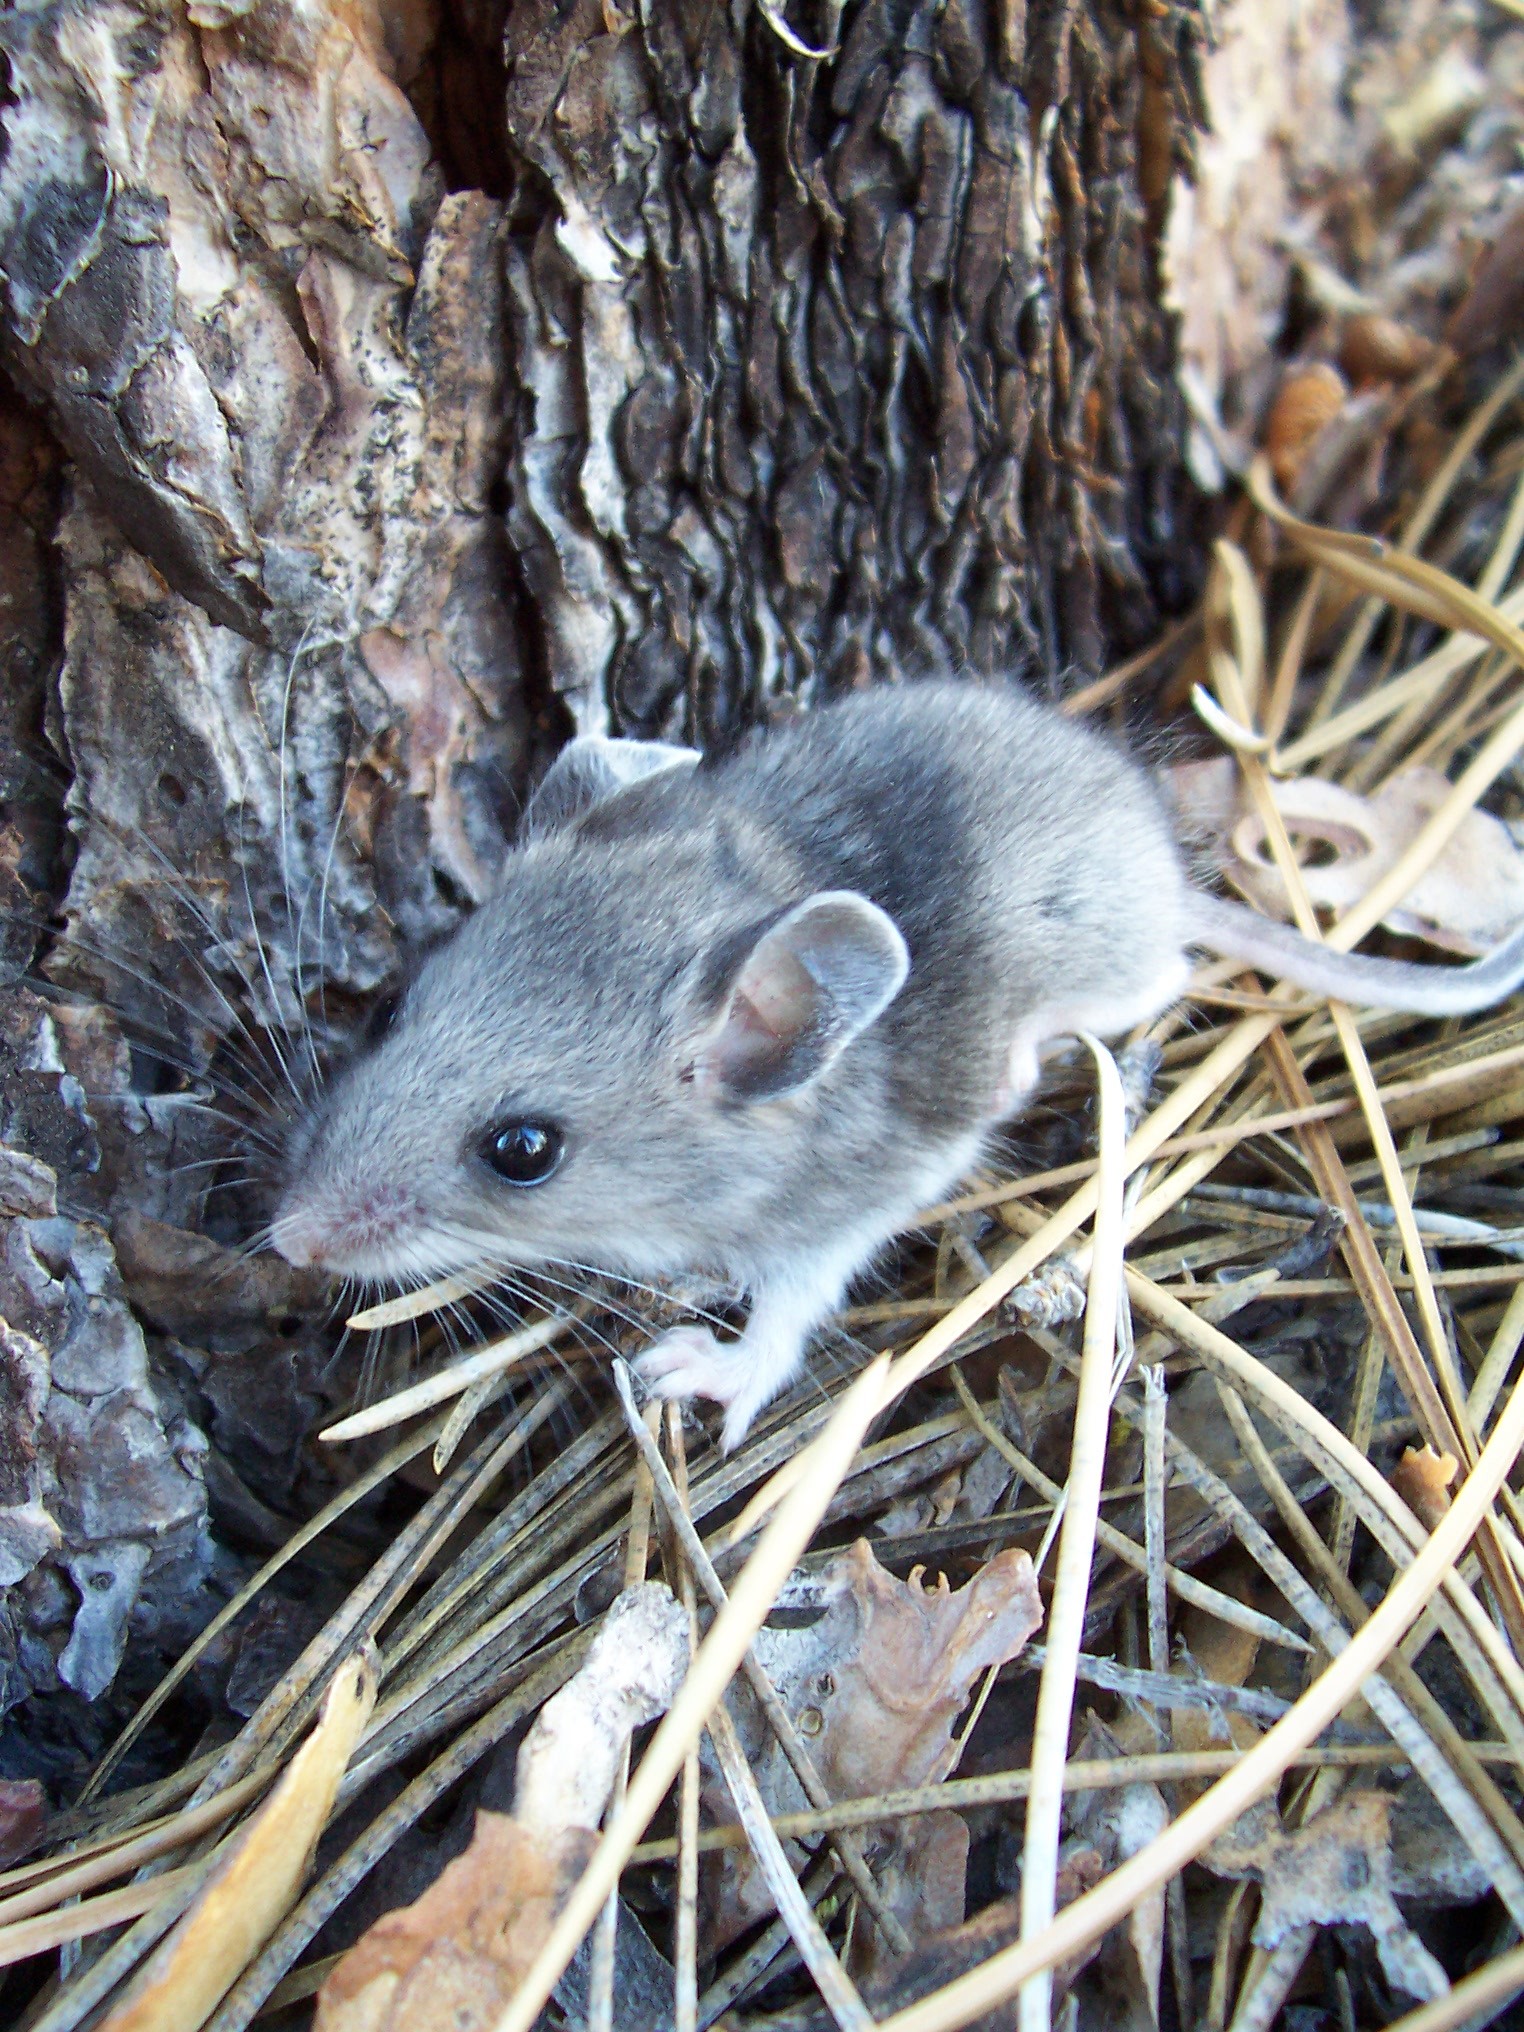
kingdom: Animalia
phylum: Chordata
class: Mammalia
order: Rodentia
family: Cricetidae
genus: Peromyscus
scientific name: Peromyscus maniculatus
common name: Deer mouse
